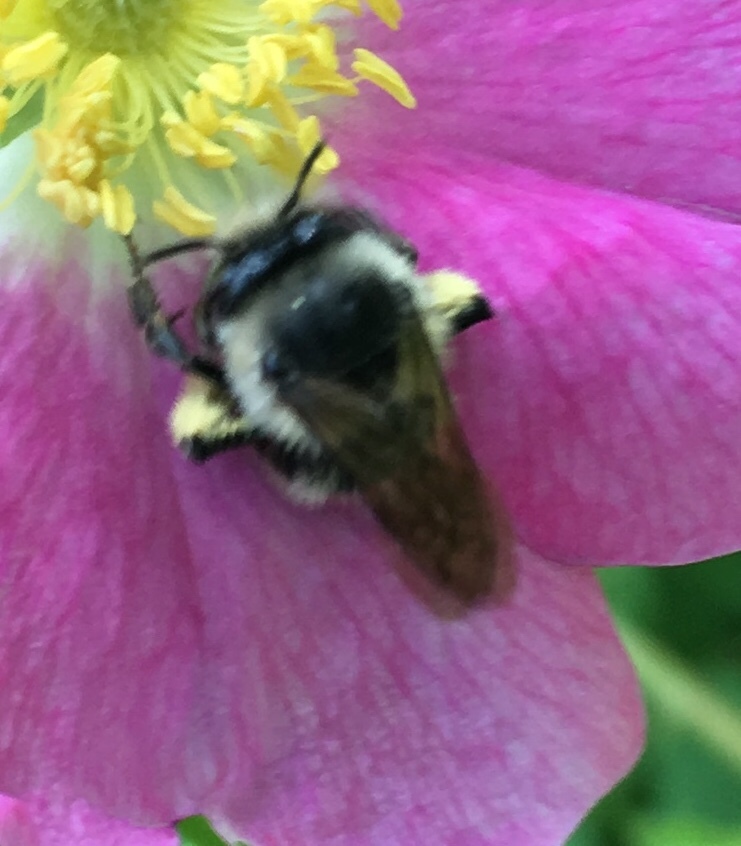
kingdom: Animalia
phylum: Arthropoda
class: Insecta
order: Hymenoptera
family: Apidae
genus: Anthophora
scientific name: Anthophora terminalis
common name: Orange-tipped wood-digger bee
